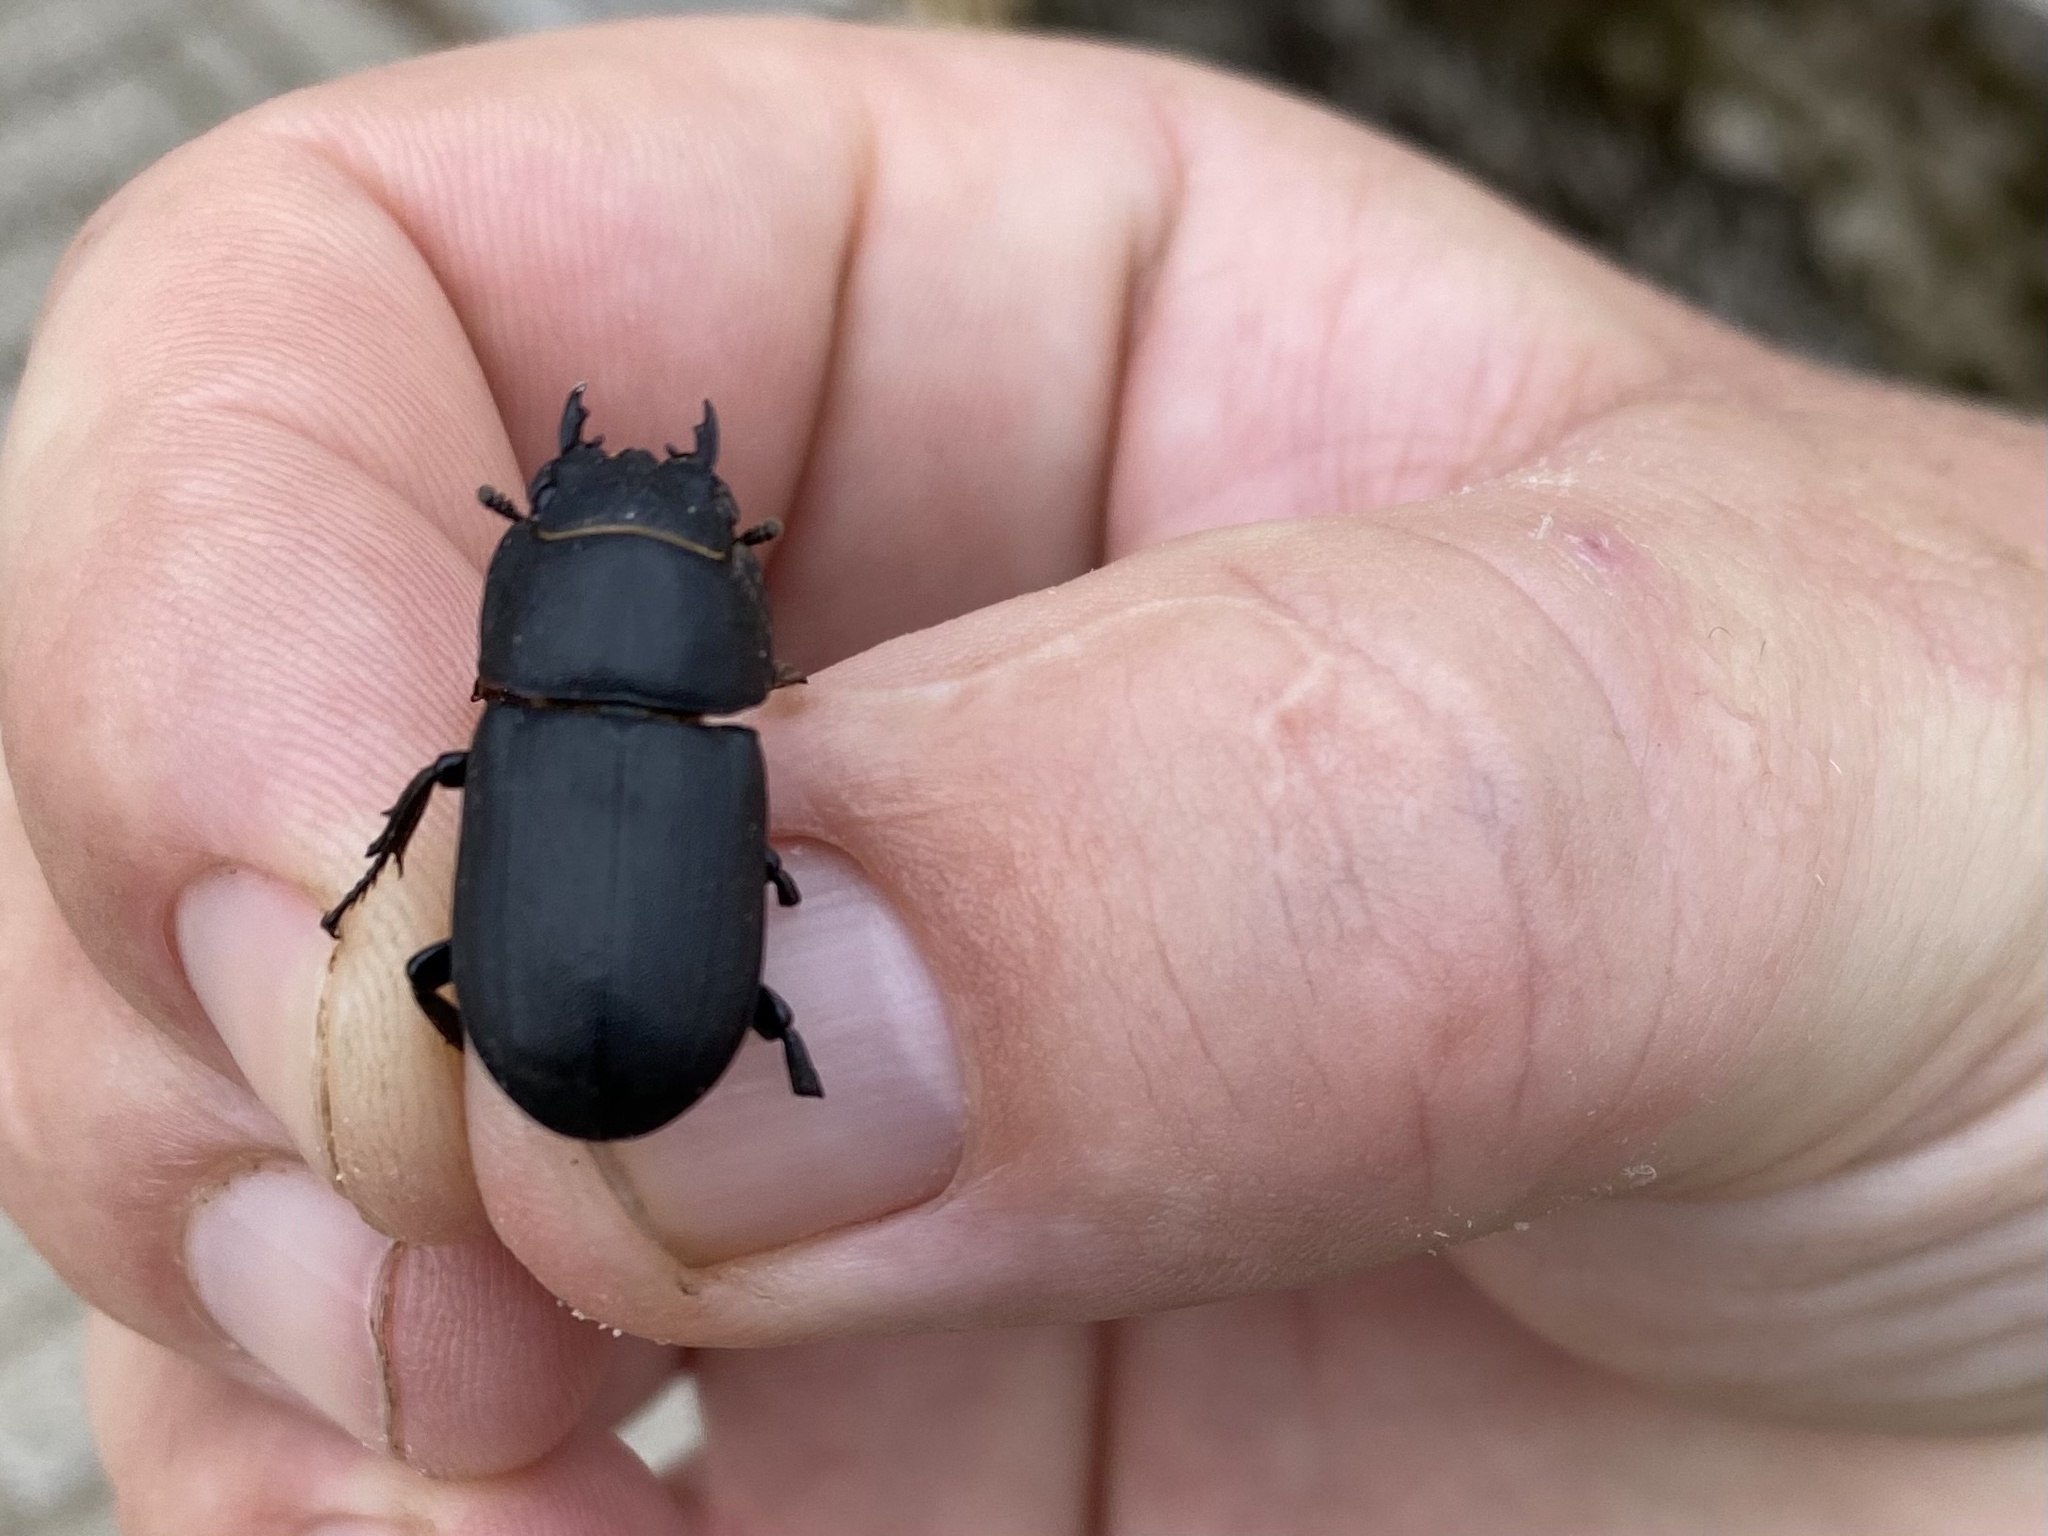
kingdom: Animalia
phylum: Arthropoda
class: Insecta
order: Coleoptera
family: Lucanidae
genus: Dorcus
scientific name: Dorcus parallelipipedus
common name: Lesser stag beetle
